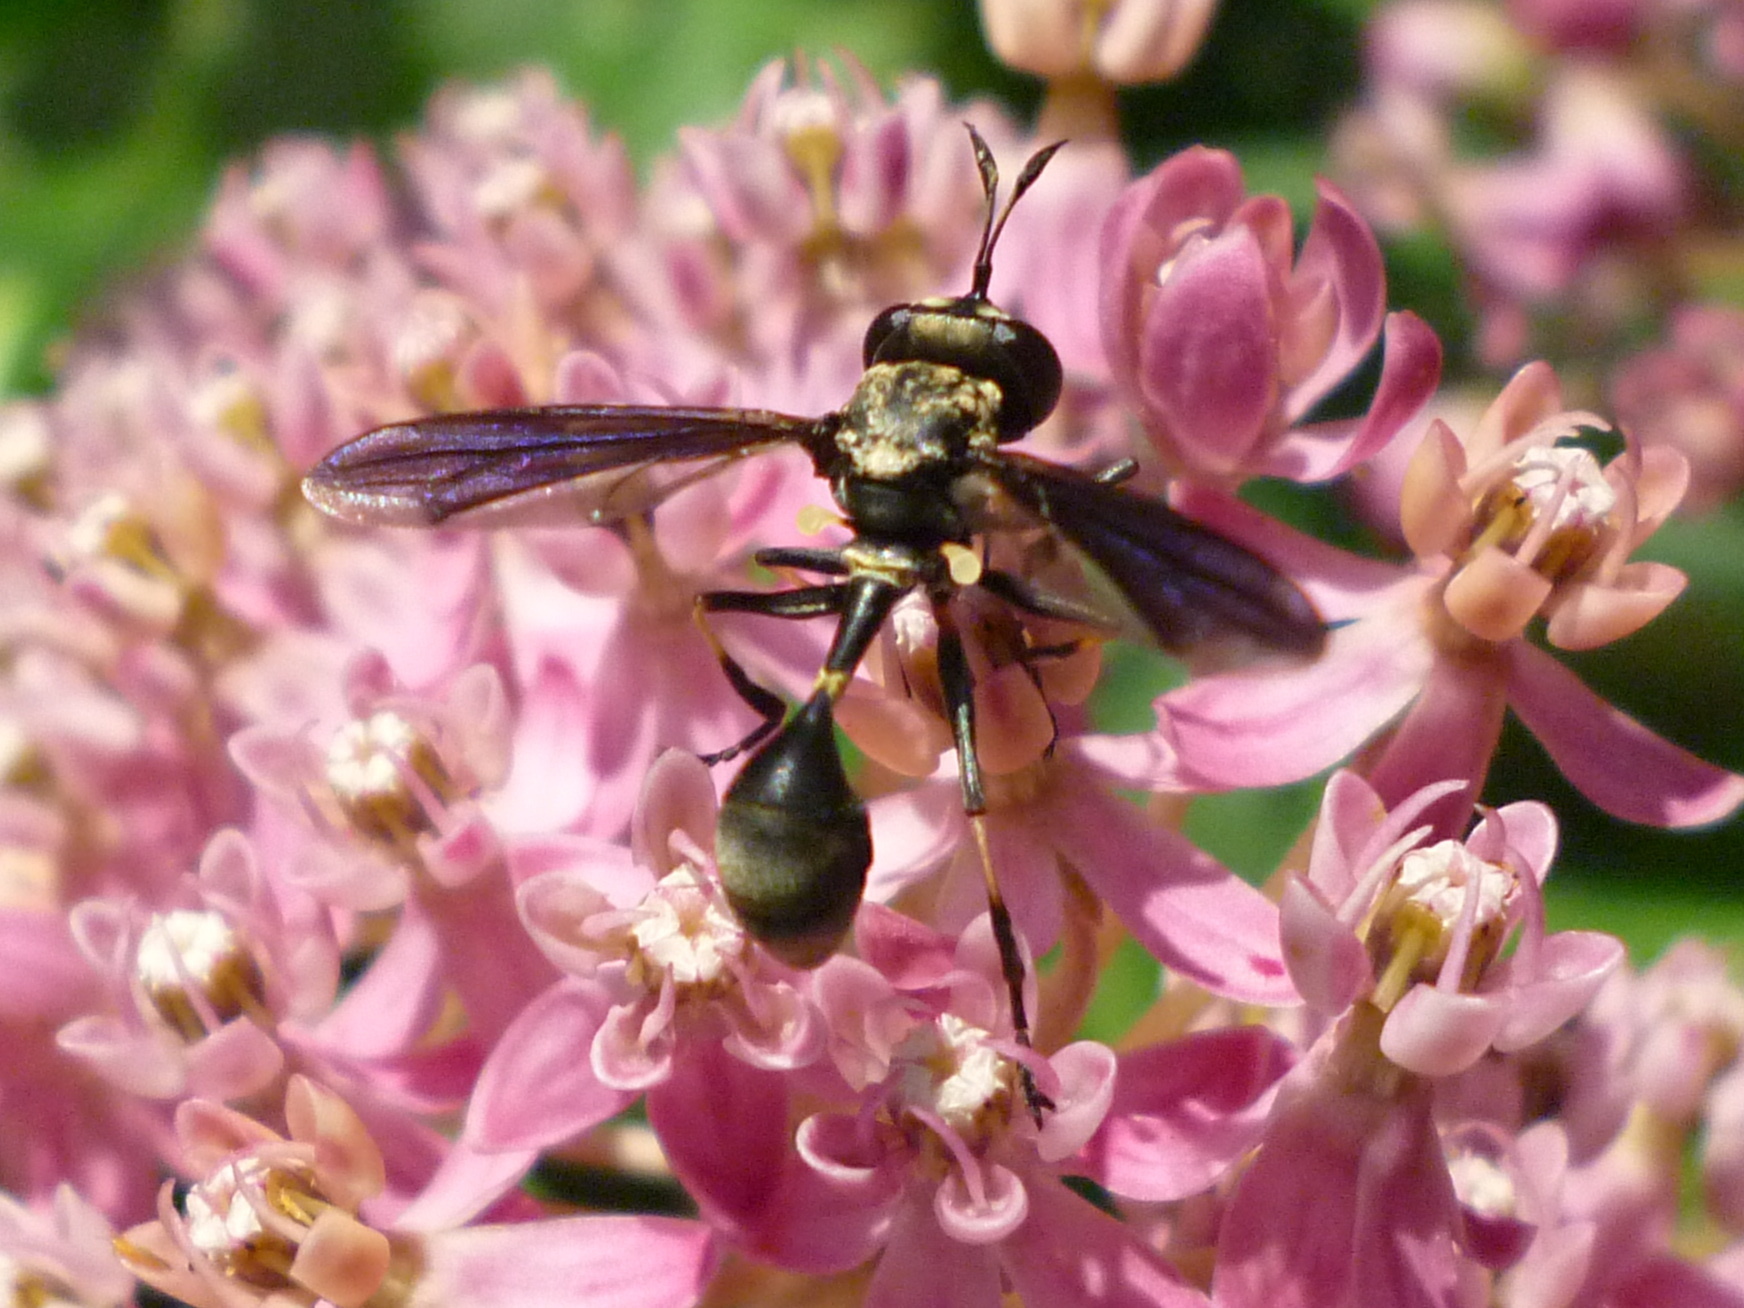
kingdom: Animalia
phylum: Arthropoda
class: Insecta
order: Diptera
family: Conopidae
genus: Physocephala
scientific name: Physocephala tibialis
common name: Common eastern physocephala
